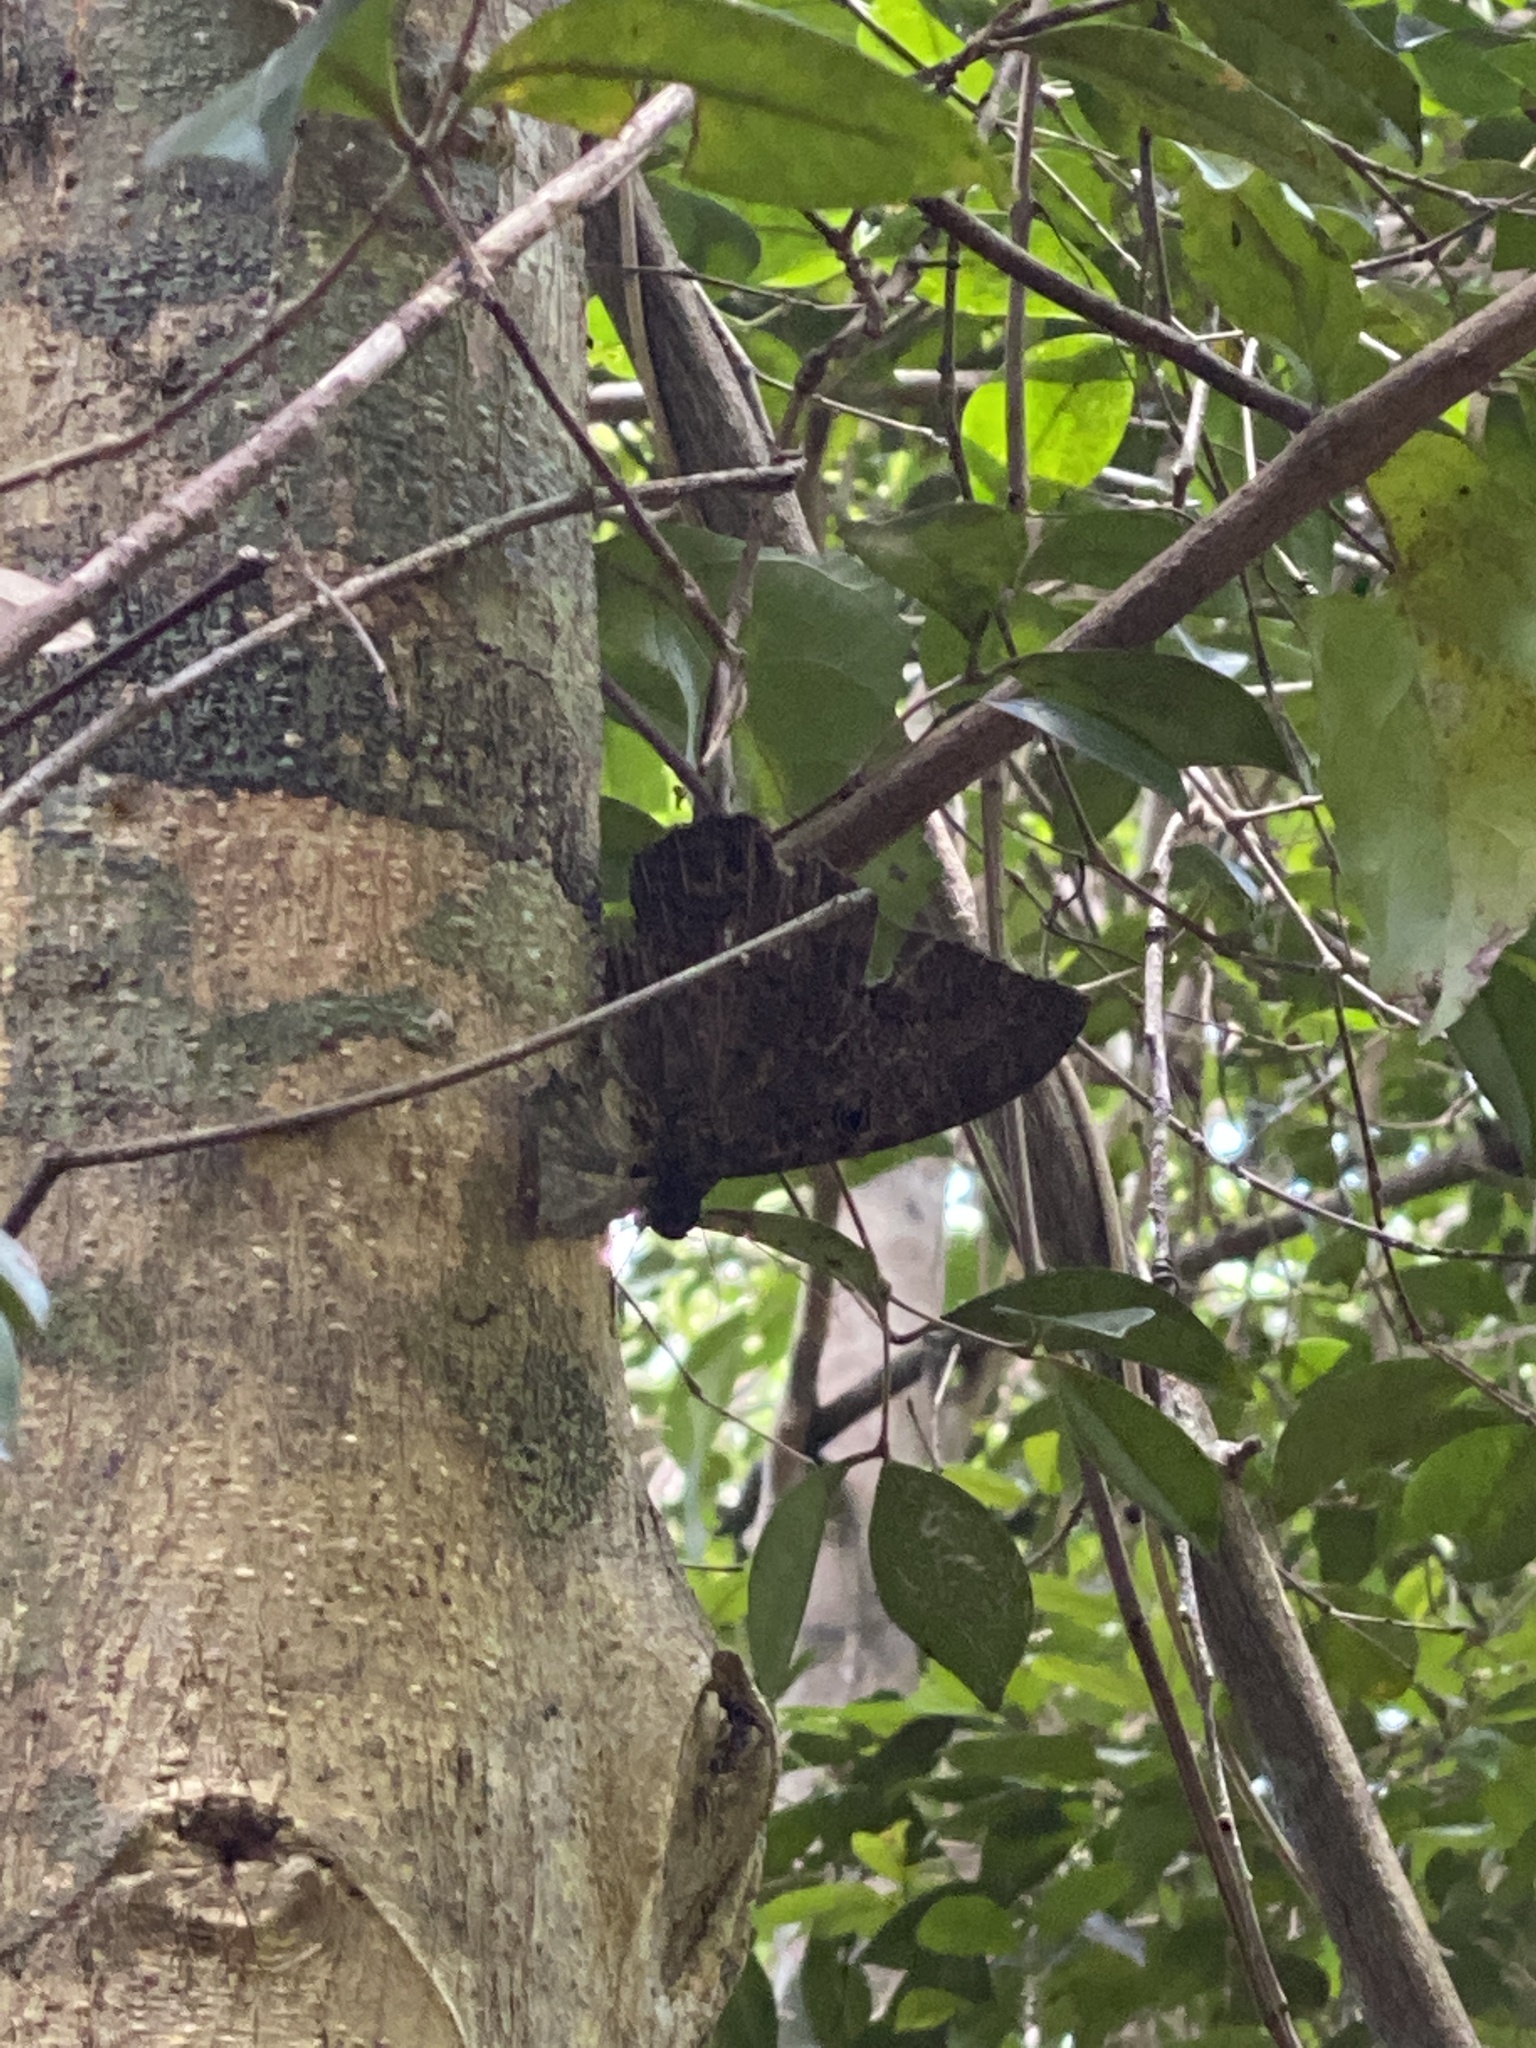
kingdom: Animalia
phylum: Arthropoda
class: Insecta
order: Lepidoptera
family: Erebidae
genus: Ascalapha
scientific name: Ascalapha odorata
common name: Black witch
